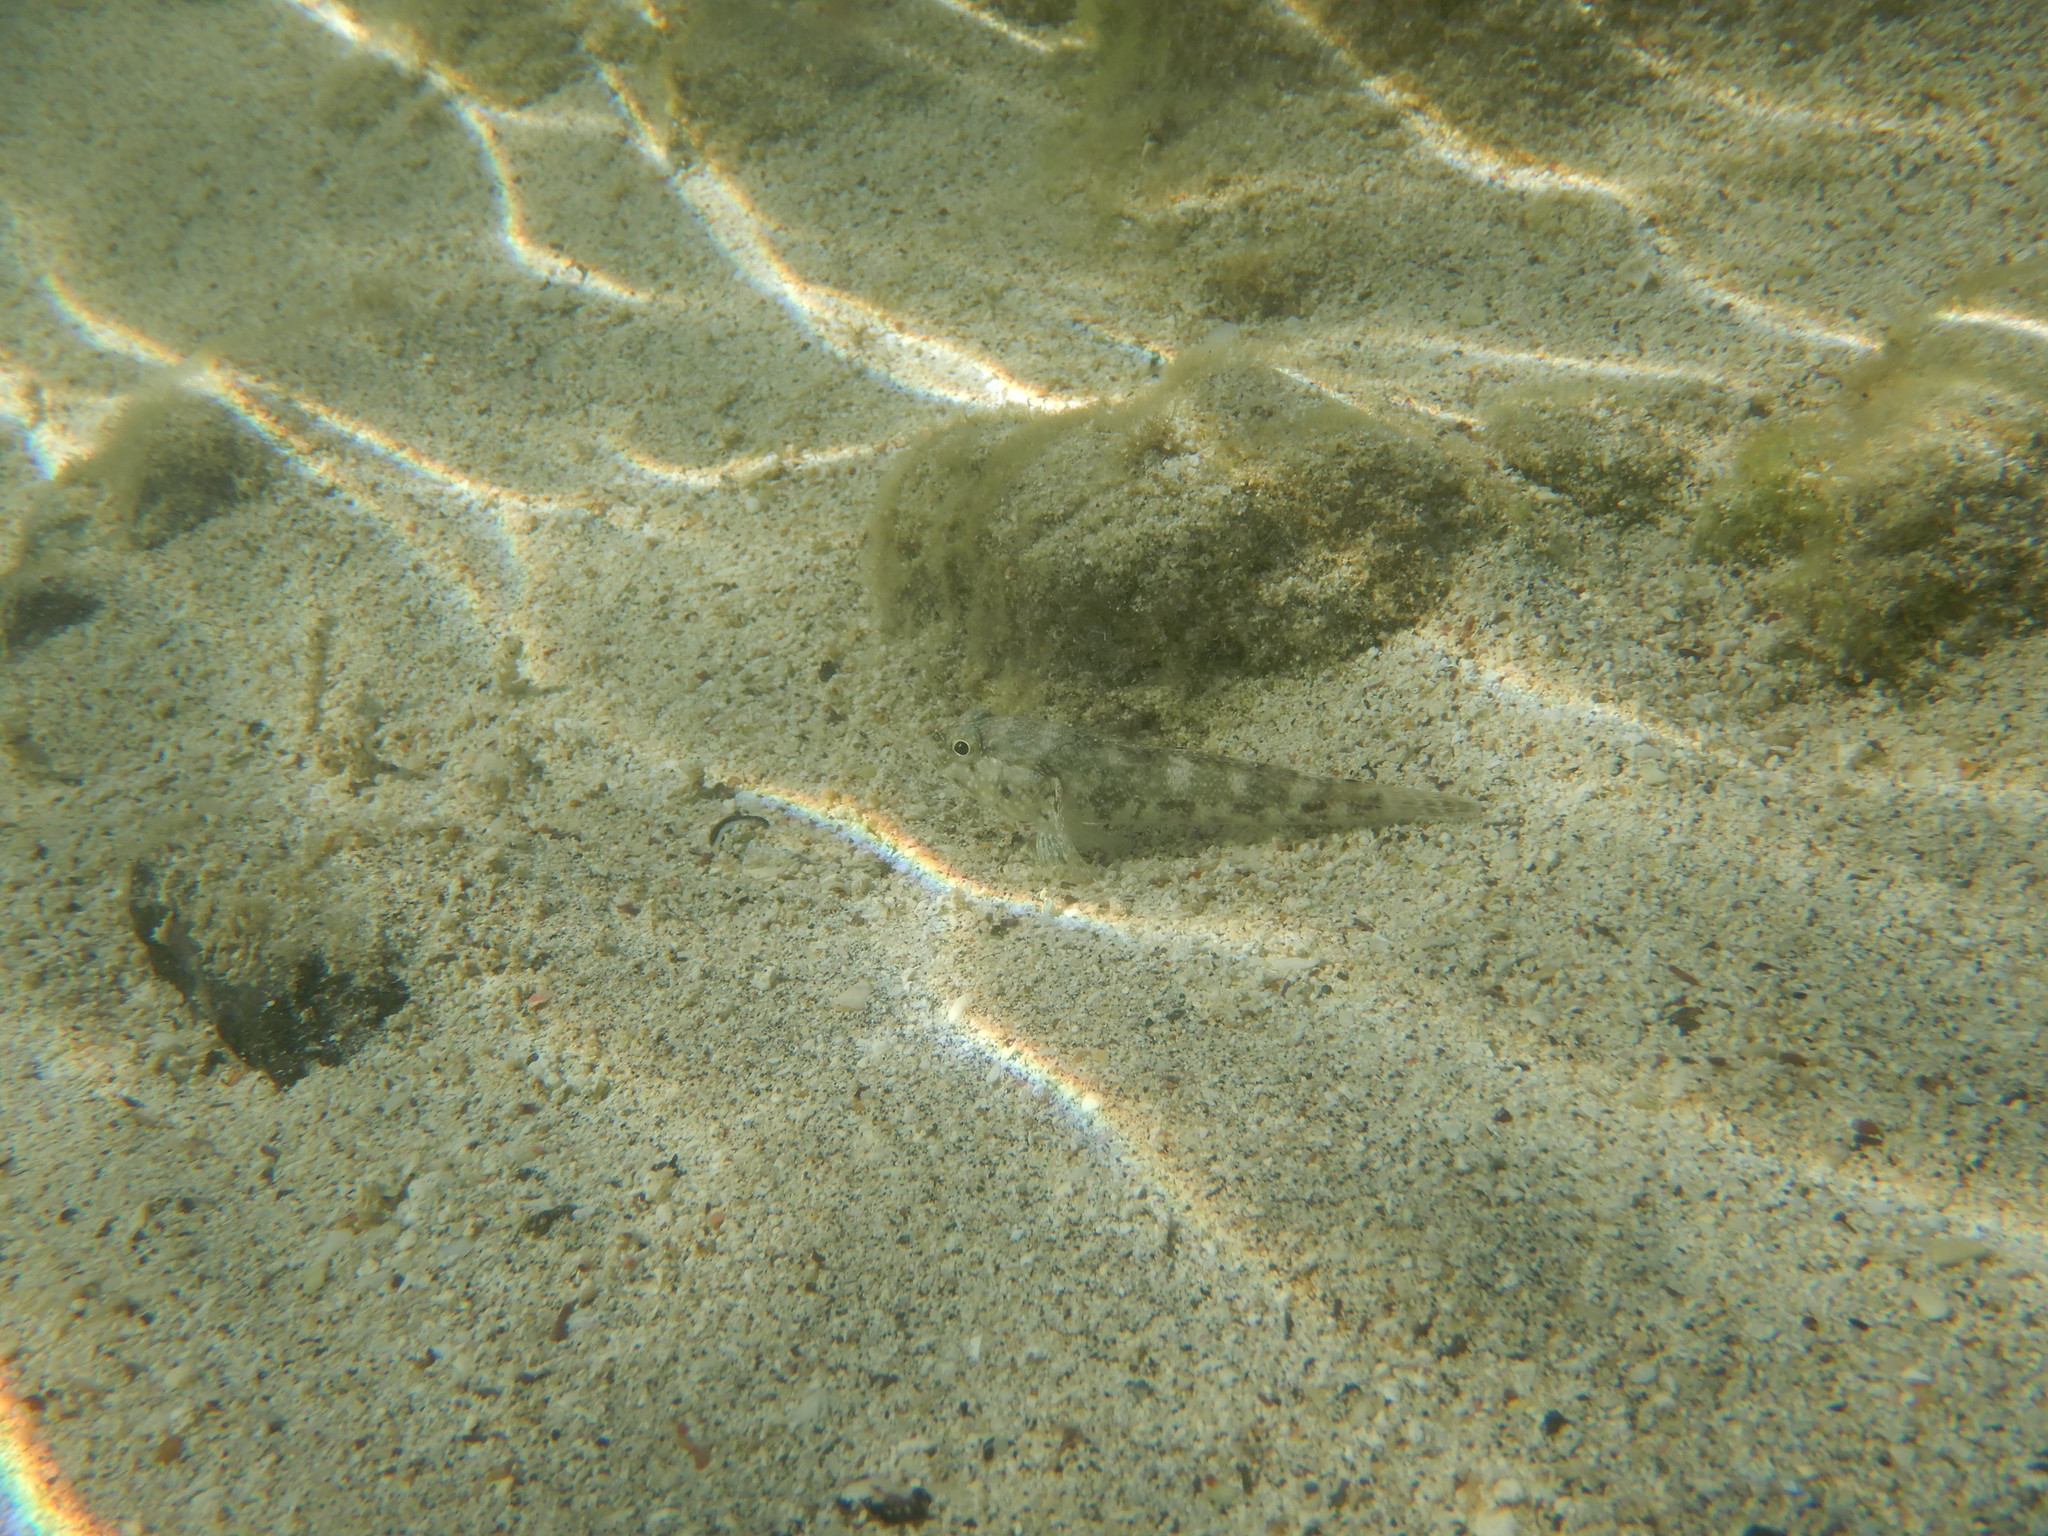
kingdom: Animalia
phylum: Chordata
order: Perciformes
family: Gobiidae
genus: Mauligobius
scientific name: Mauligobius maderensis
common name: Rock goby
